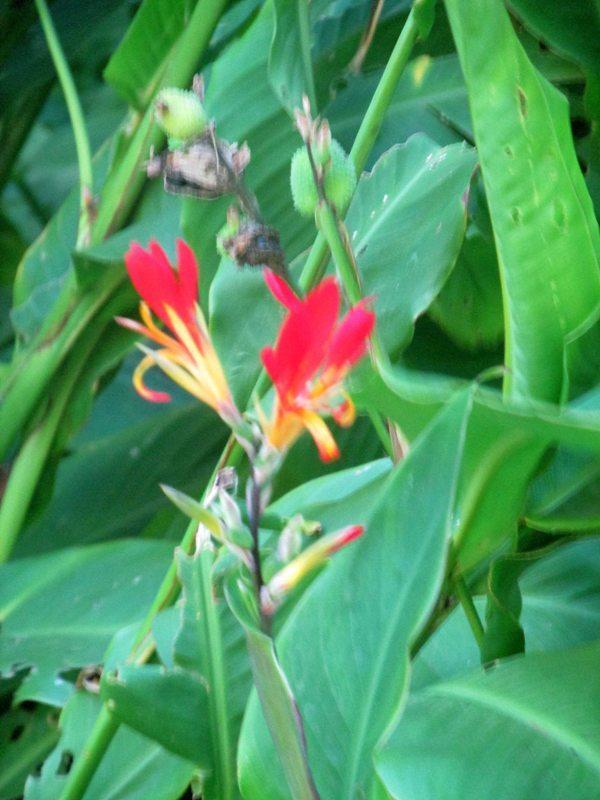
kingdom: Plantae
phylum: Tracheophyta
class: Liliopsida
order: Zingiberales
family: Cannaceae
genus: Canna
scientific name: Canna indica
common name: Indian shot
